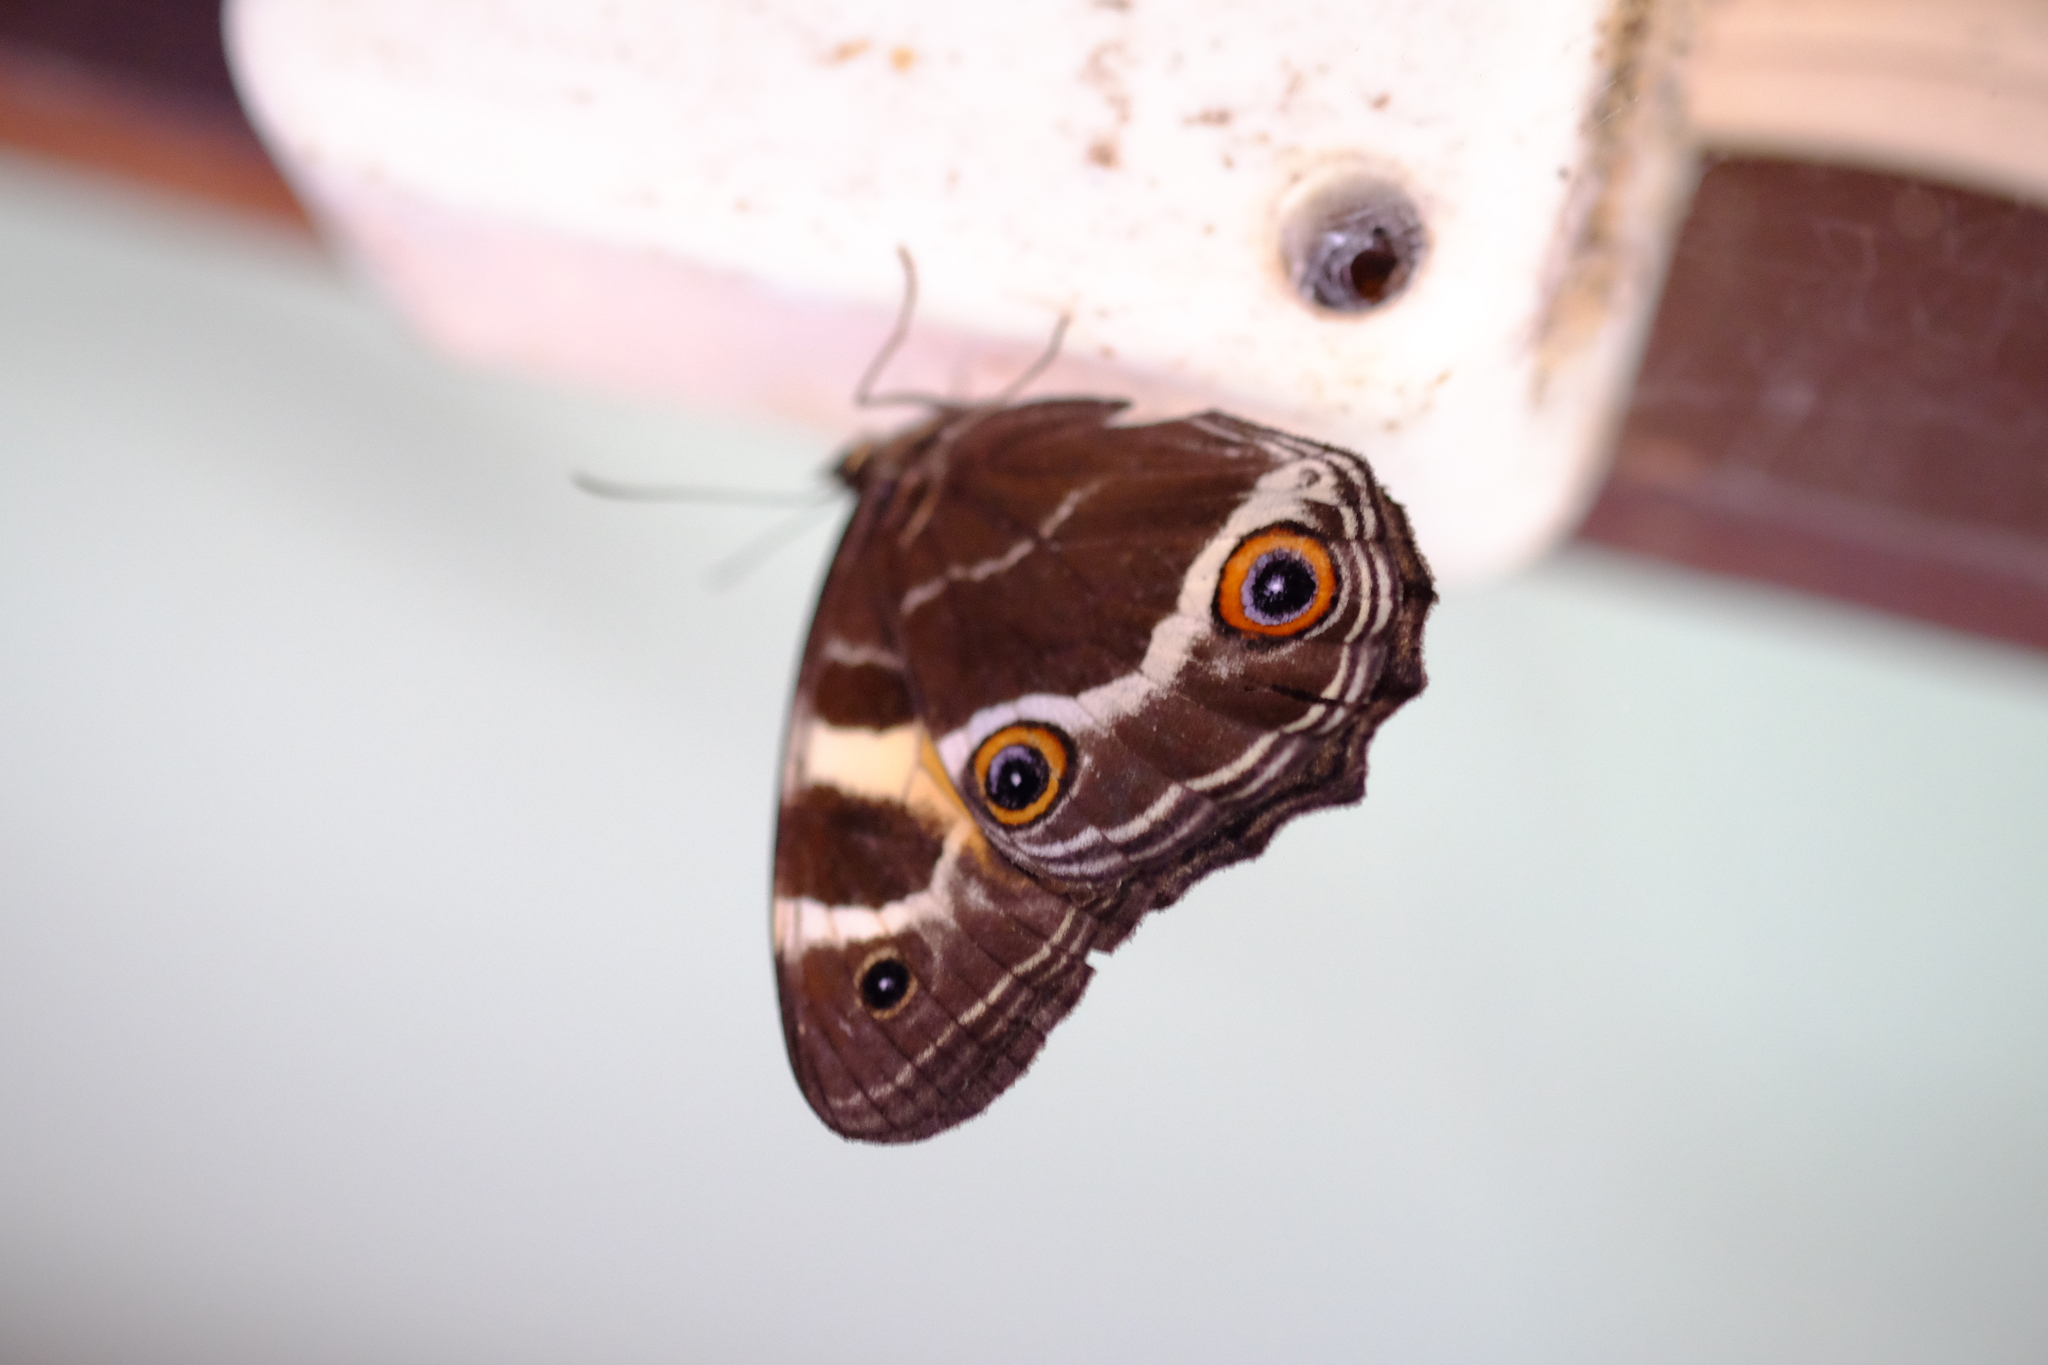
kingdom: Animalia
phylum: Arthropoda
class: Insecta
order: Lepidoptera
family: Nymphalidae
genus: Tisiphone
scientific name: Tisiphone abeona
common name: Swordgrass brown
